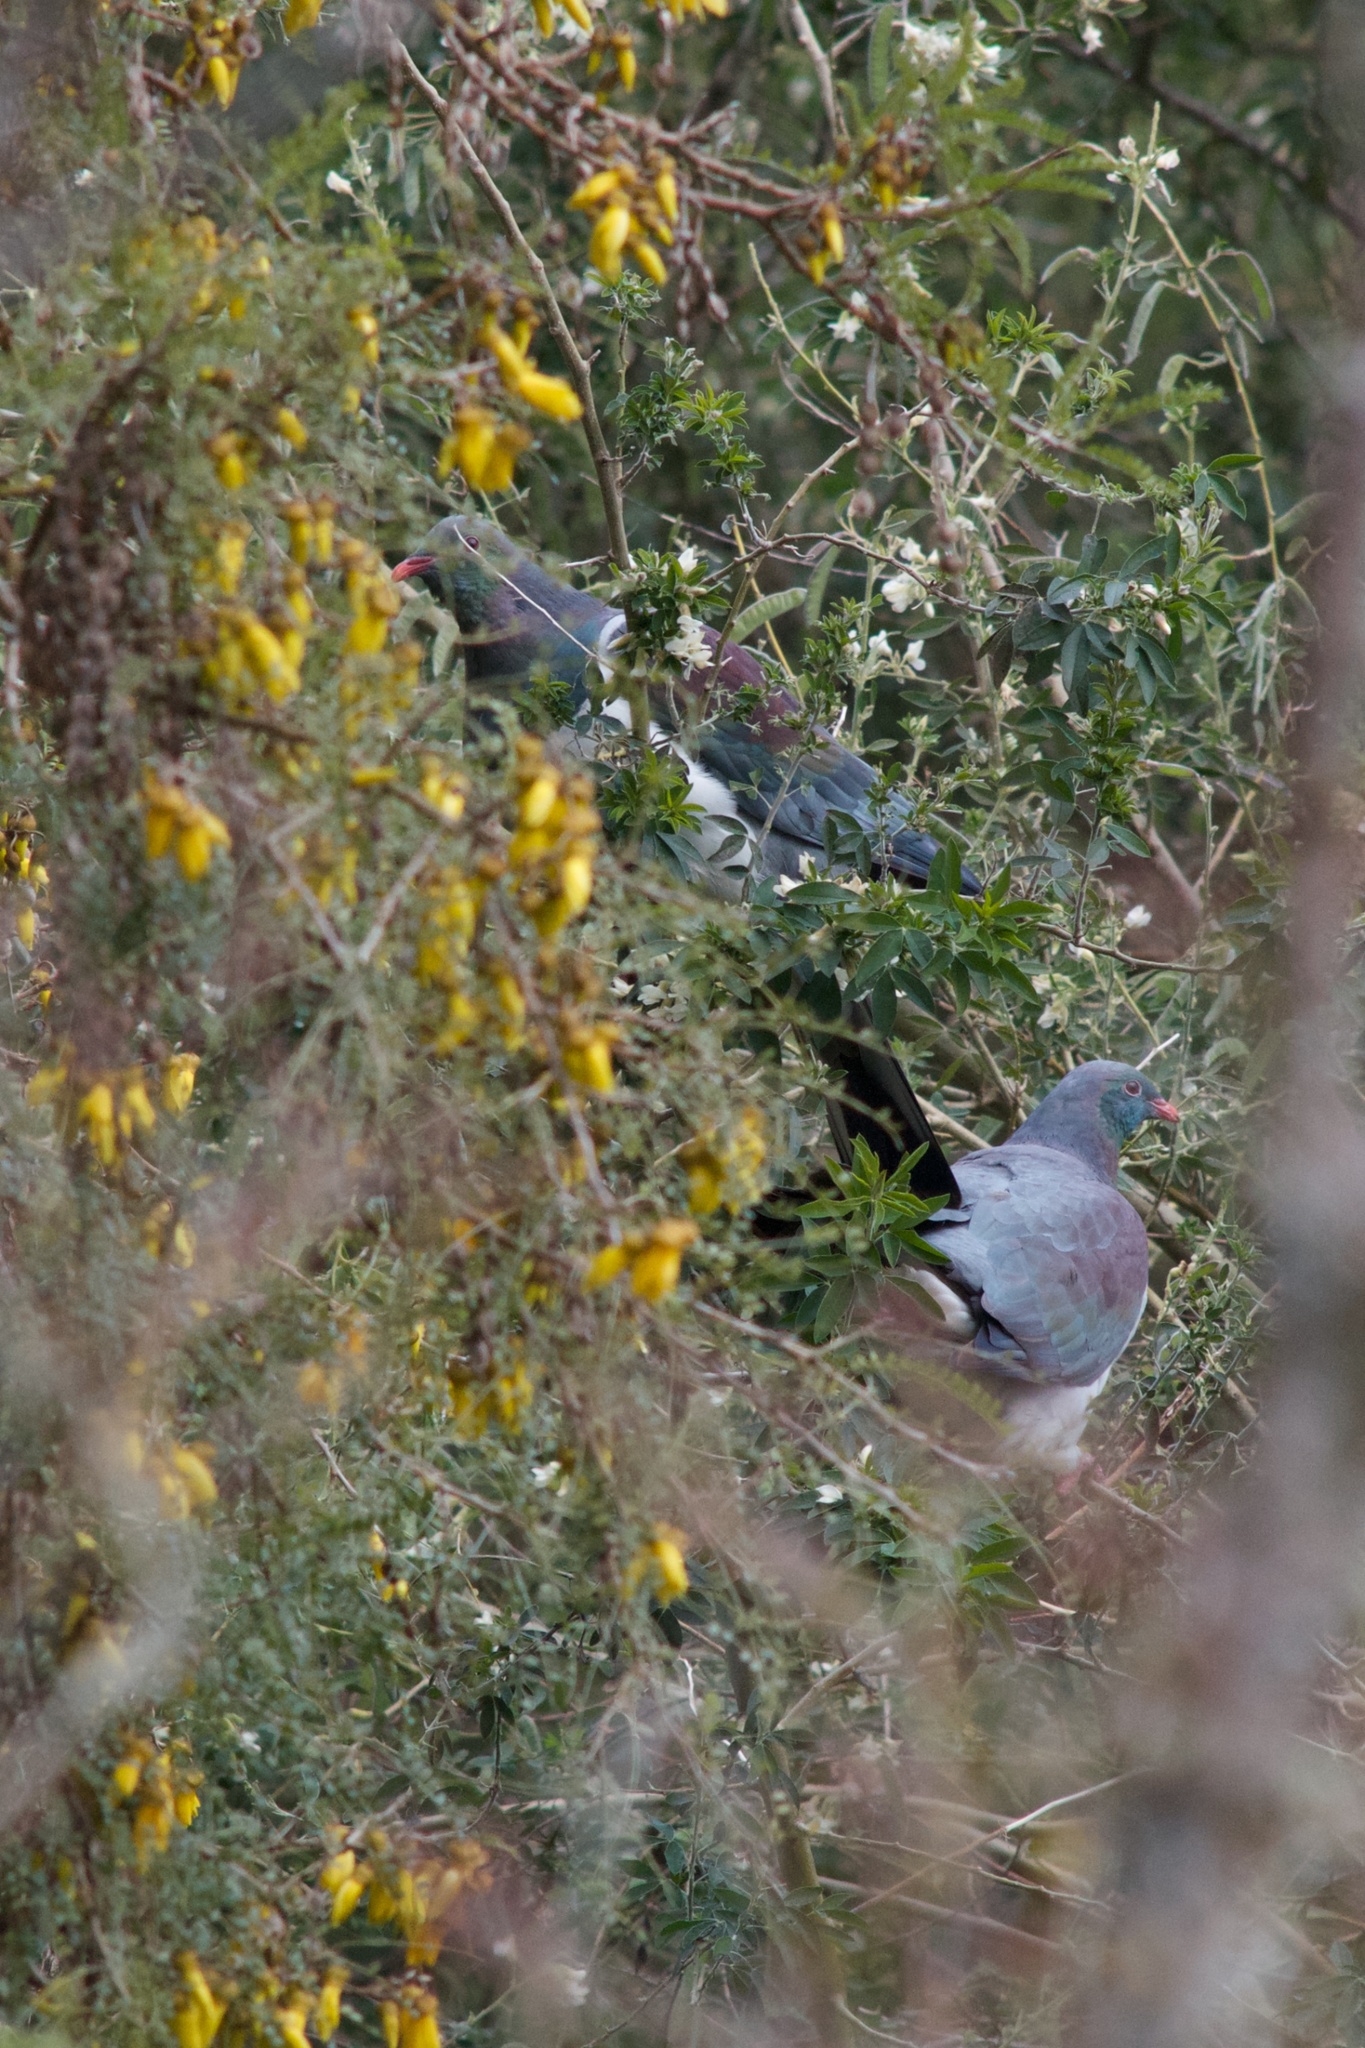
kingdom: Animalia
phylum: Chordata
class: Aves
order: Columbiformes
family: Columbidae
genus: Hemiphaga
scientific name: Hemiphaga novaeseelandiae
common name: New zealand pigeon
